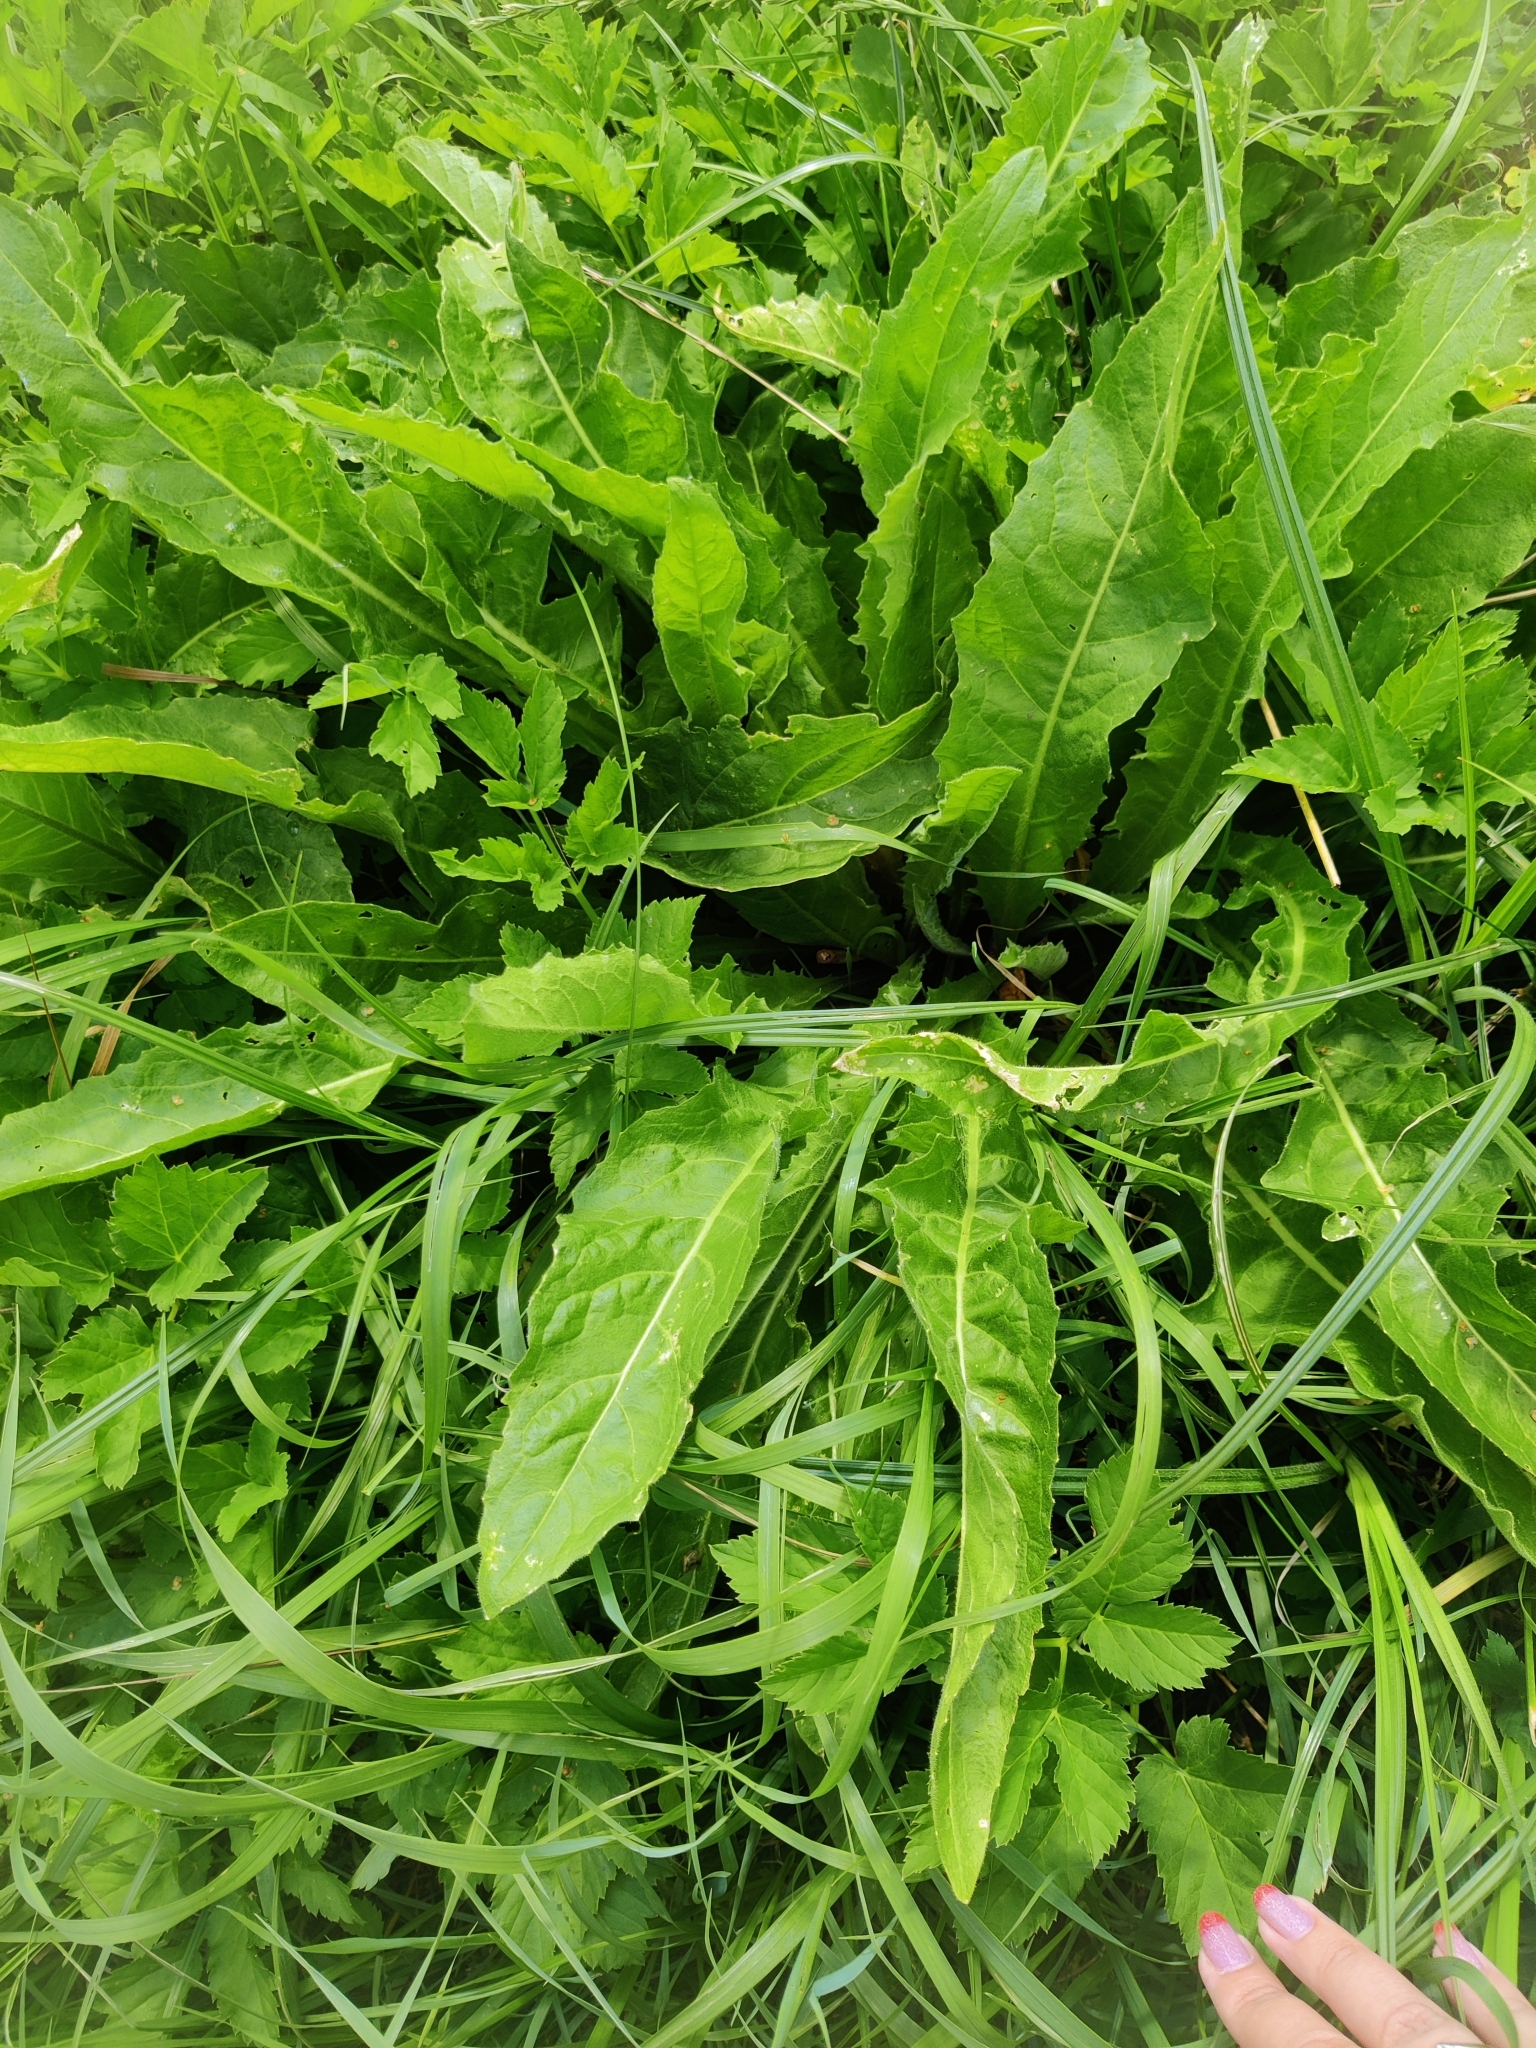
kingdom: Plantae
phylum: Tracheophyta
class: Magnoliopsida
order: Brassicales
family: Brassicaceae
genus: Bunias
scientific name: Bunias orientalis
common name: Warty-cabbage
